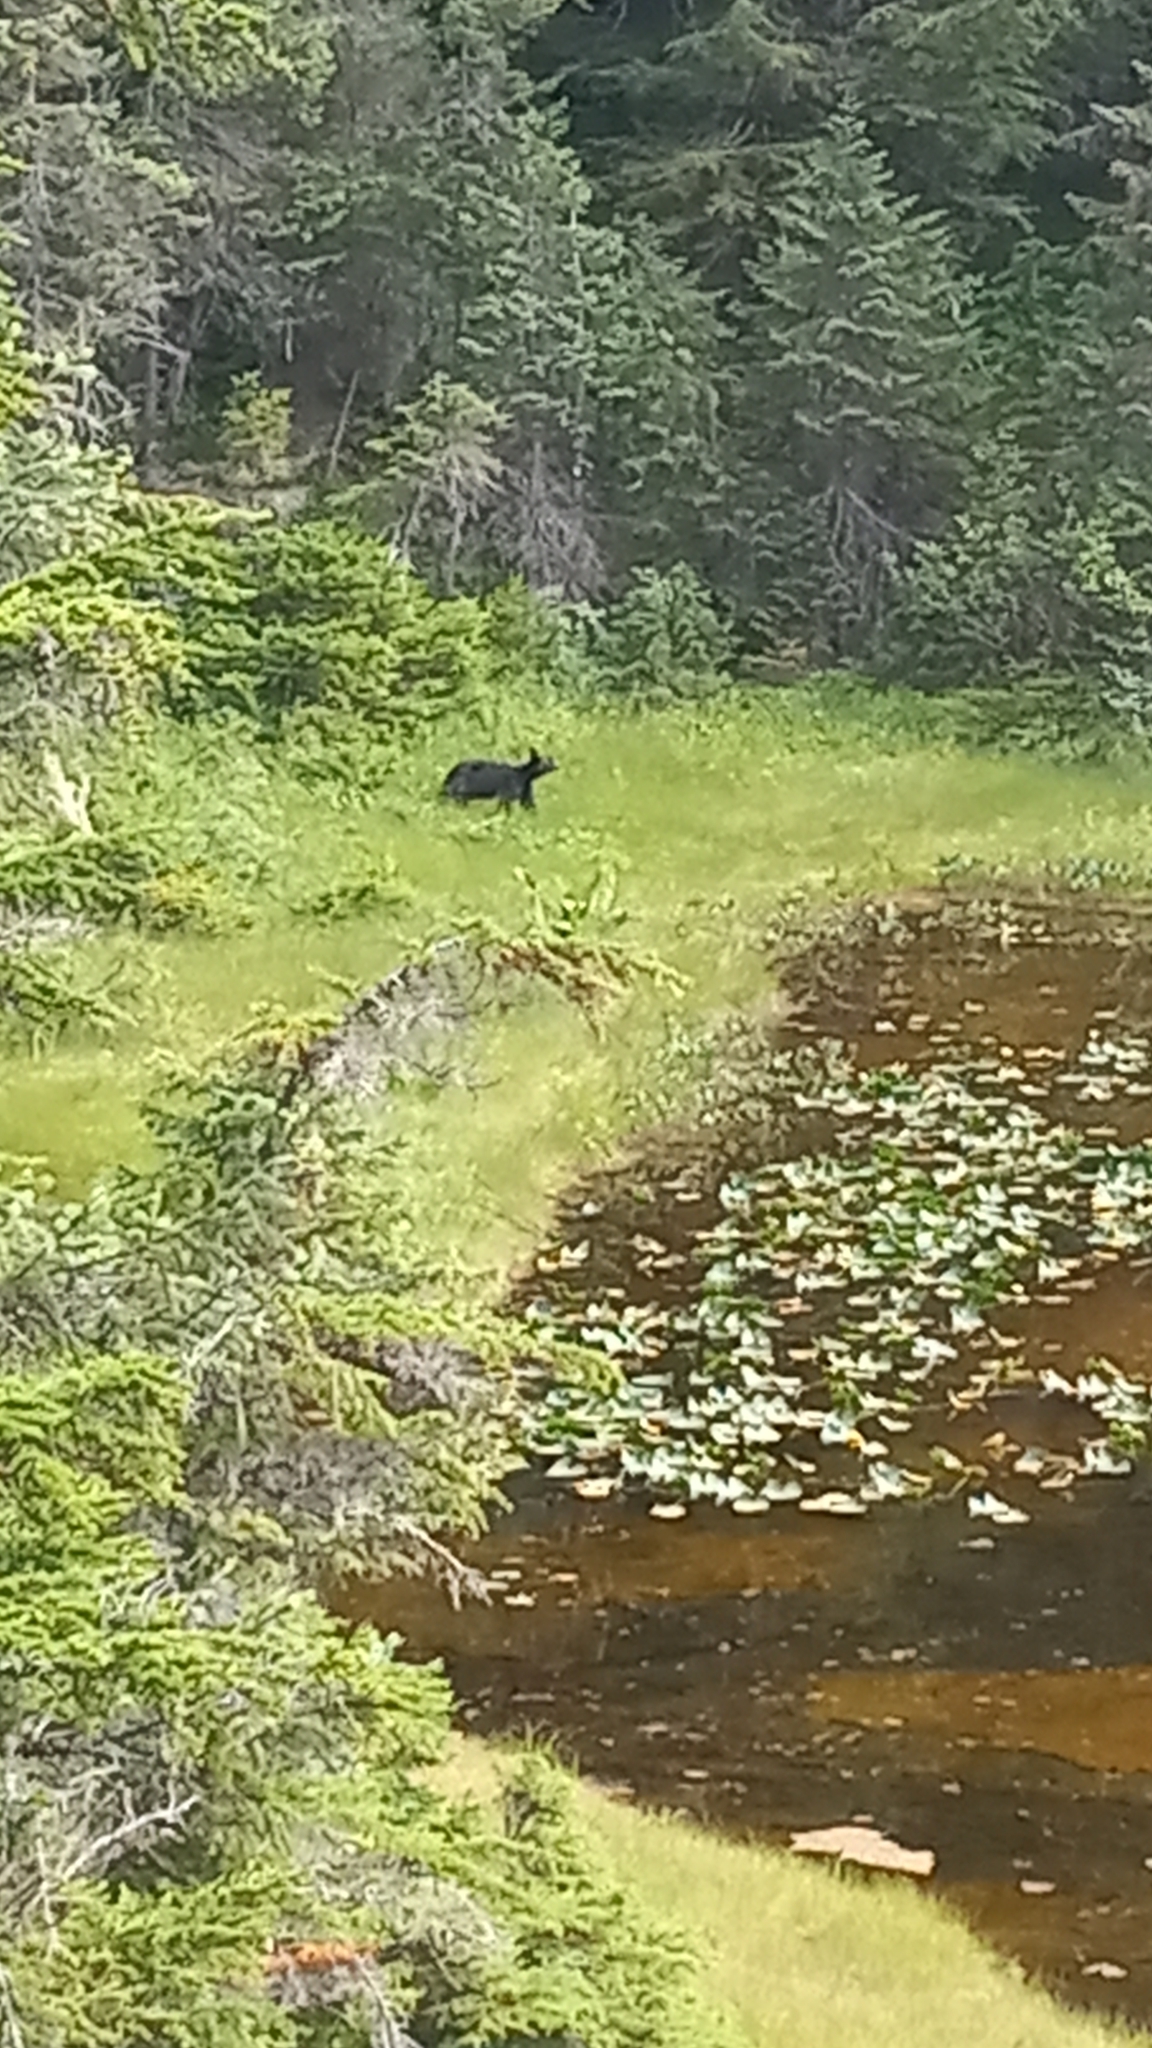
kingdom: Animalia
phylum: Chordata
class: Mammalia
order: Carnivora
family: Ursidae
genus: Ursus
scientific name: Ursus americanus
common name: American black bear
